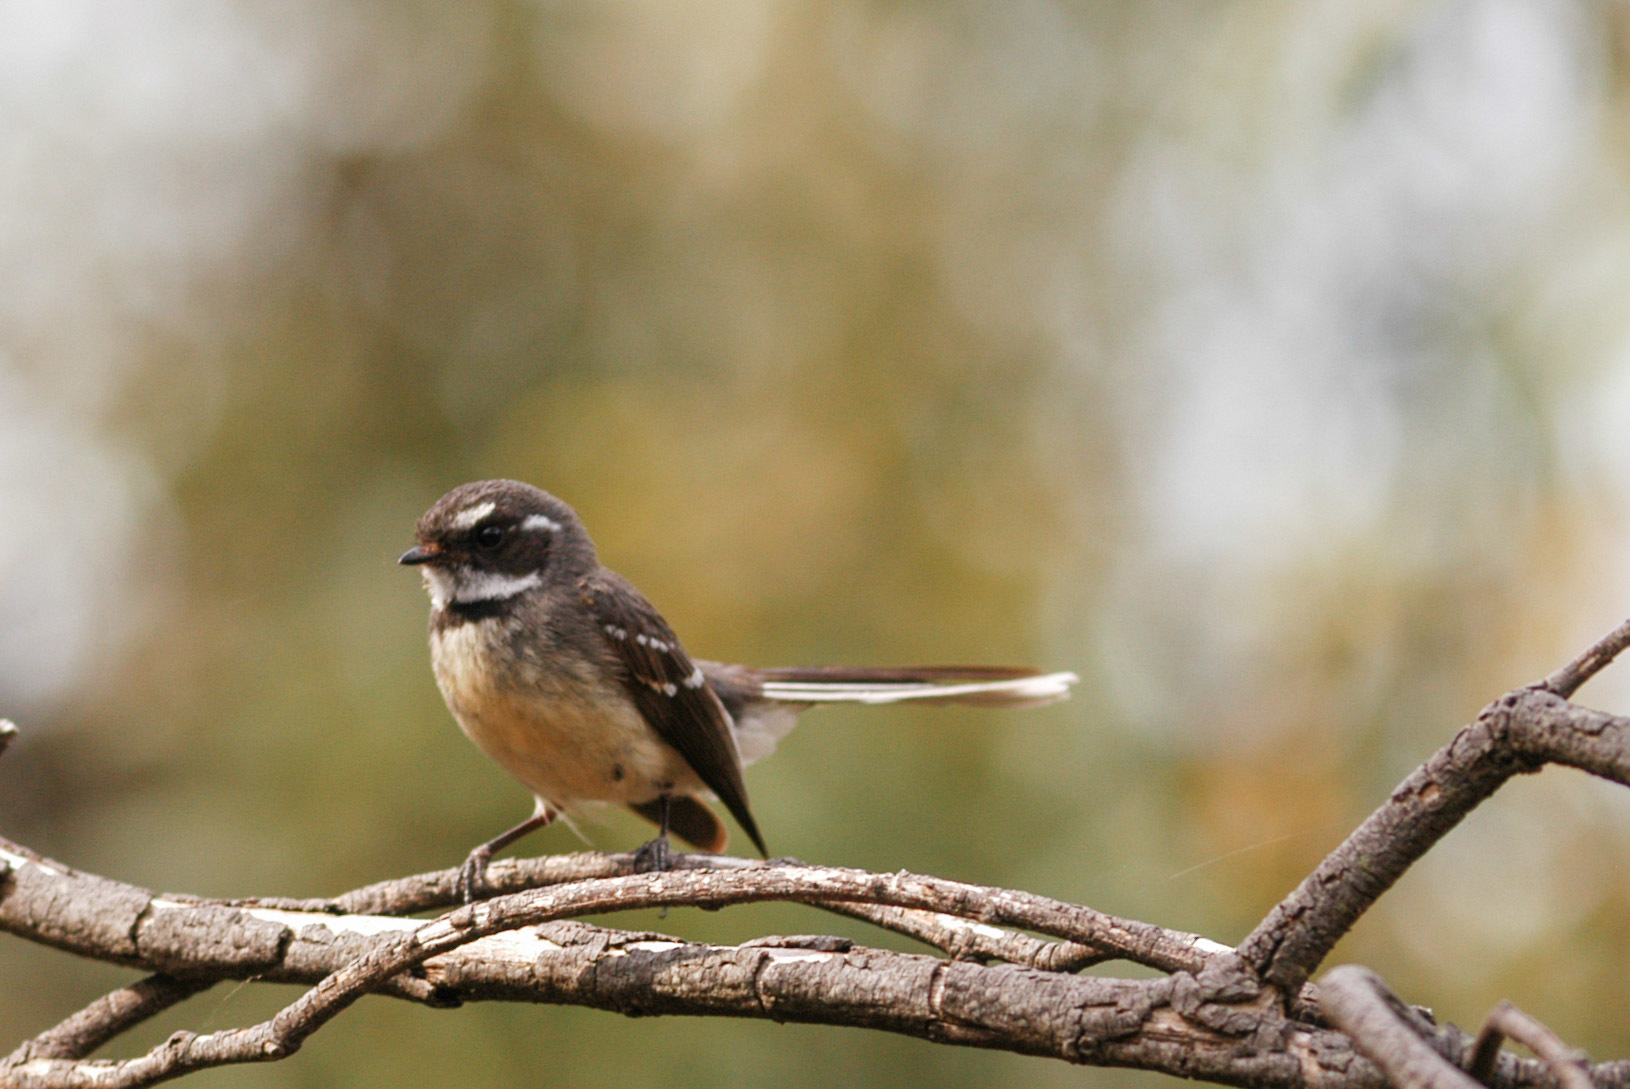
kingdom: Animalia
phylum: Chordata
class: Aves
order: Passeriformes
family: Rhipiduridae
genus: Rhipidura
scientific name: Rhipidura albiscapa
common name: Grey fantail
